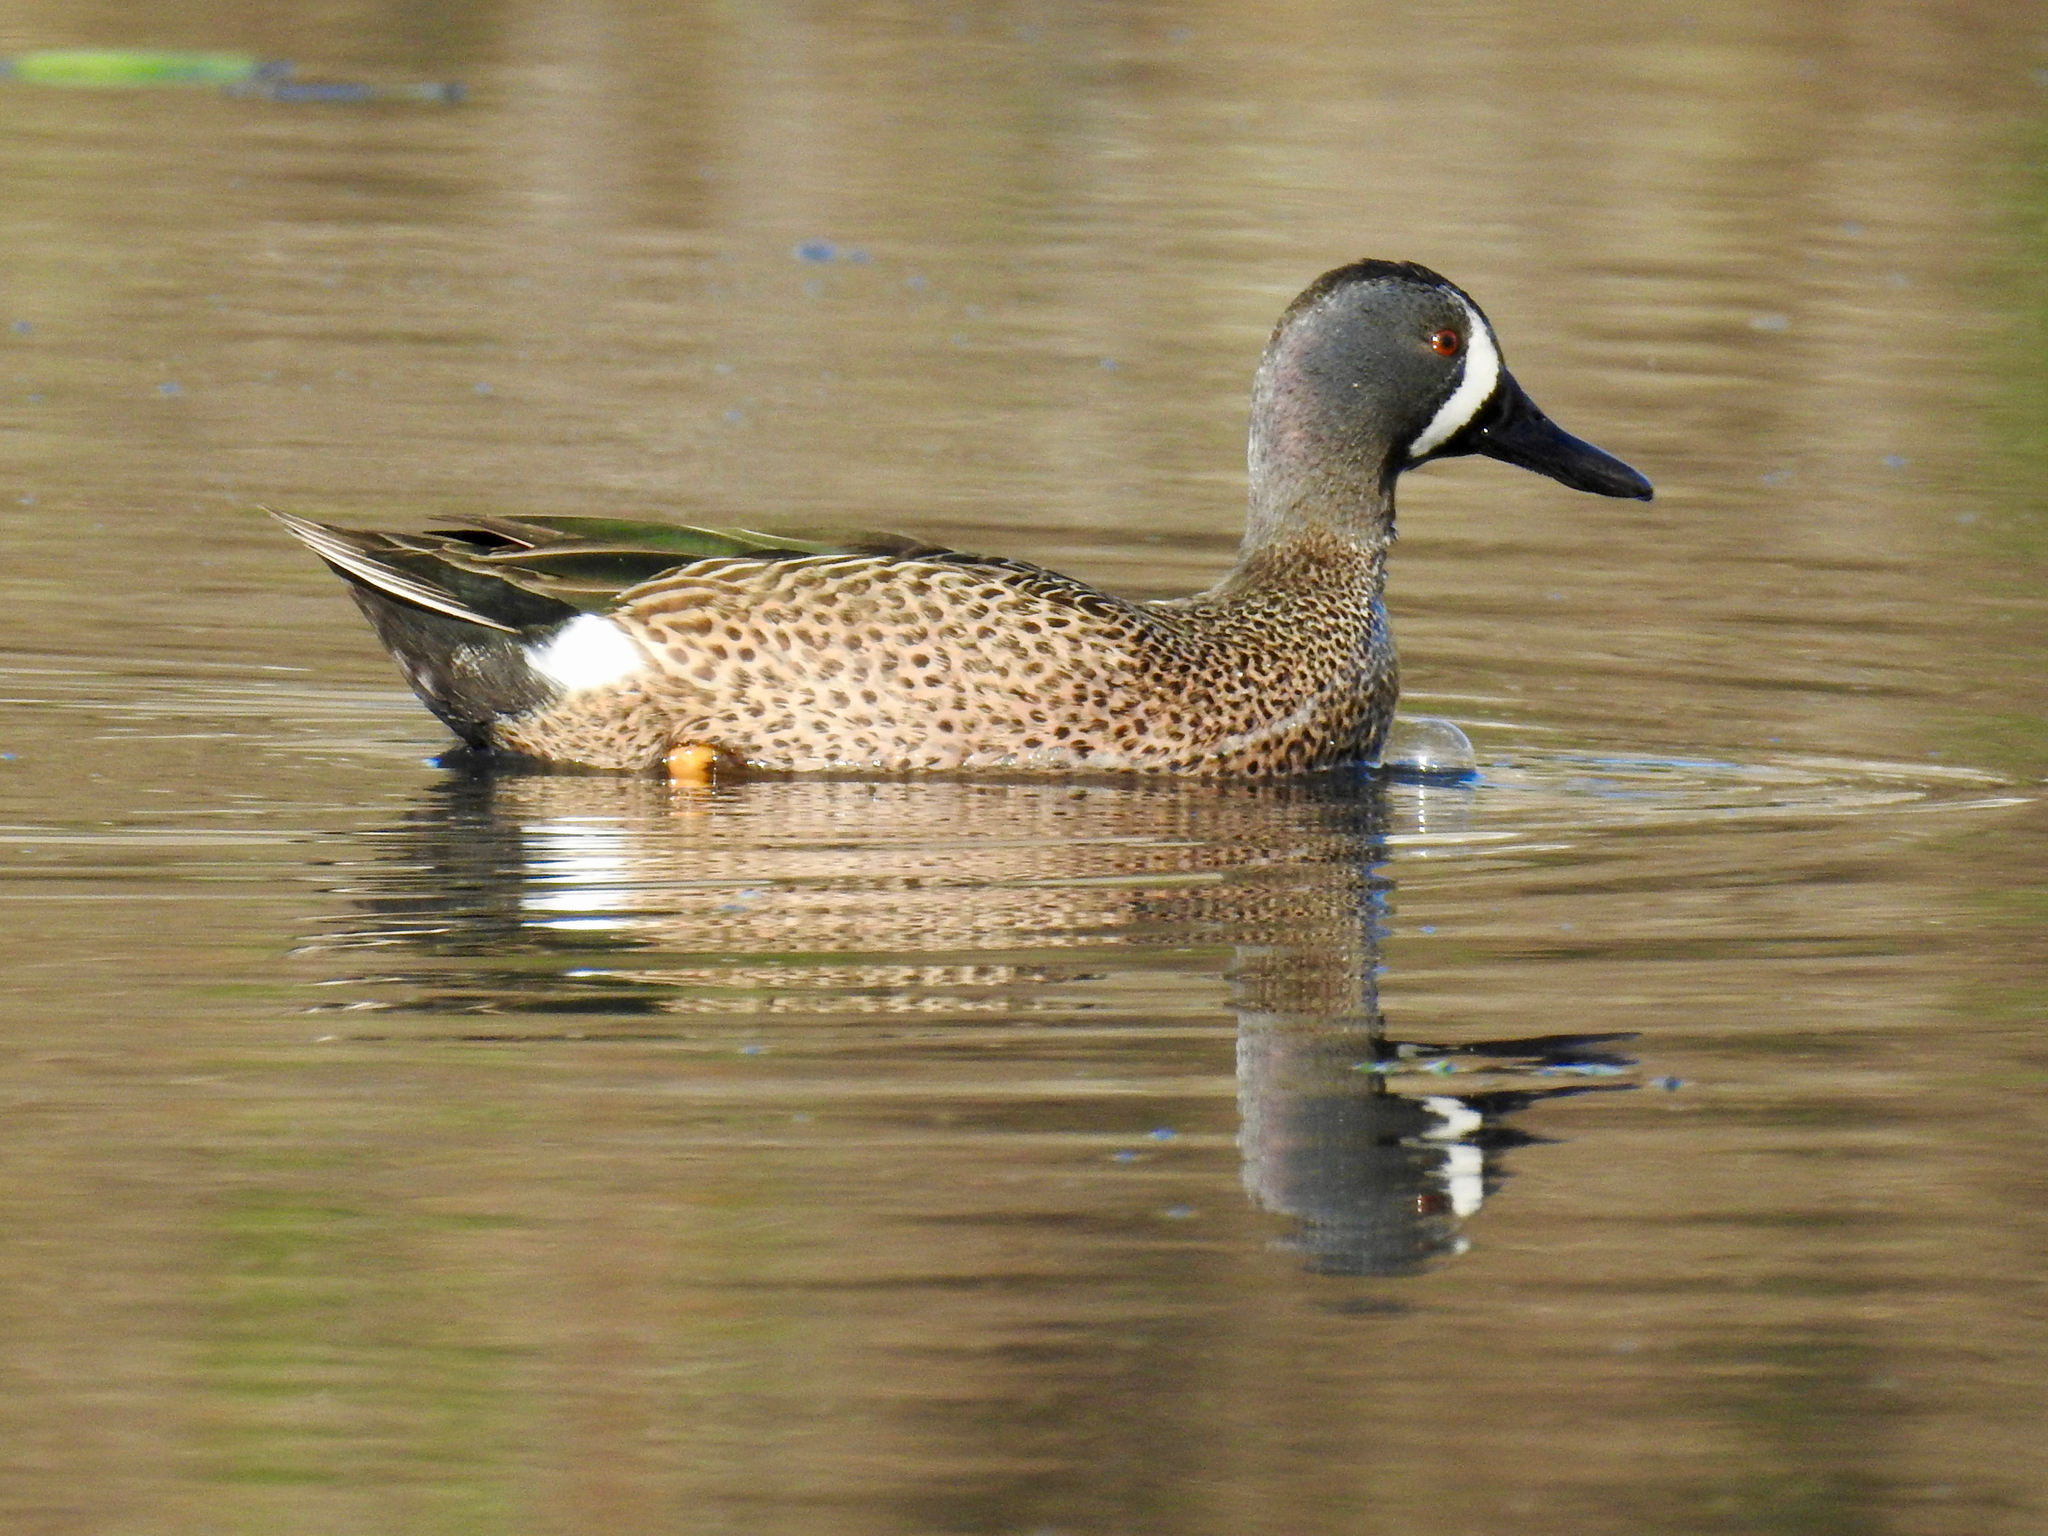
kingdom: Animalia
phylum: Chordata
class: Aves
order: Anseriformes
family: Anatidae
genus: Spatula
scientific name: Spatula discors
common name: Blue-winged teal
